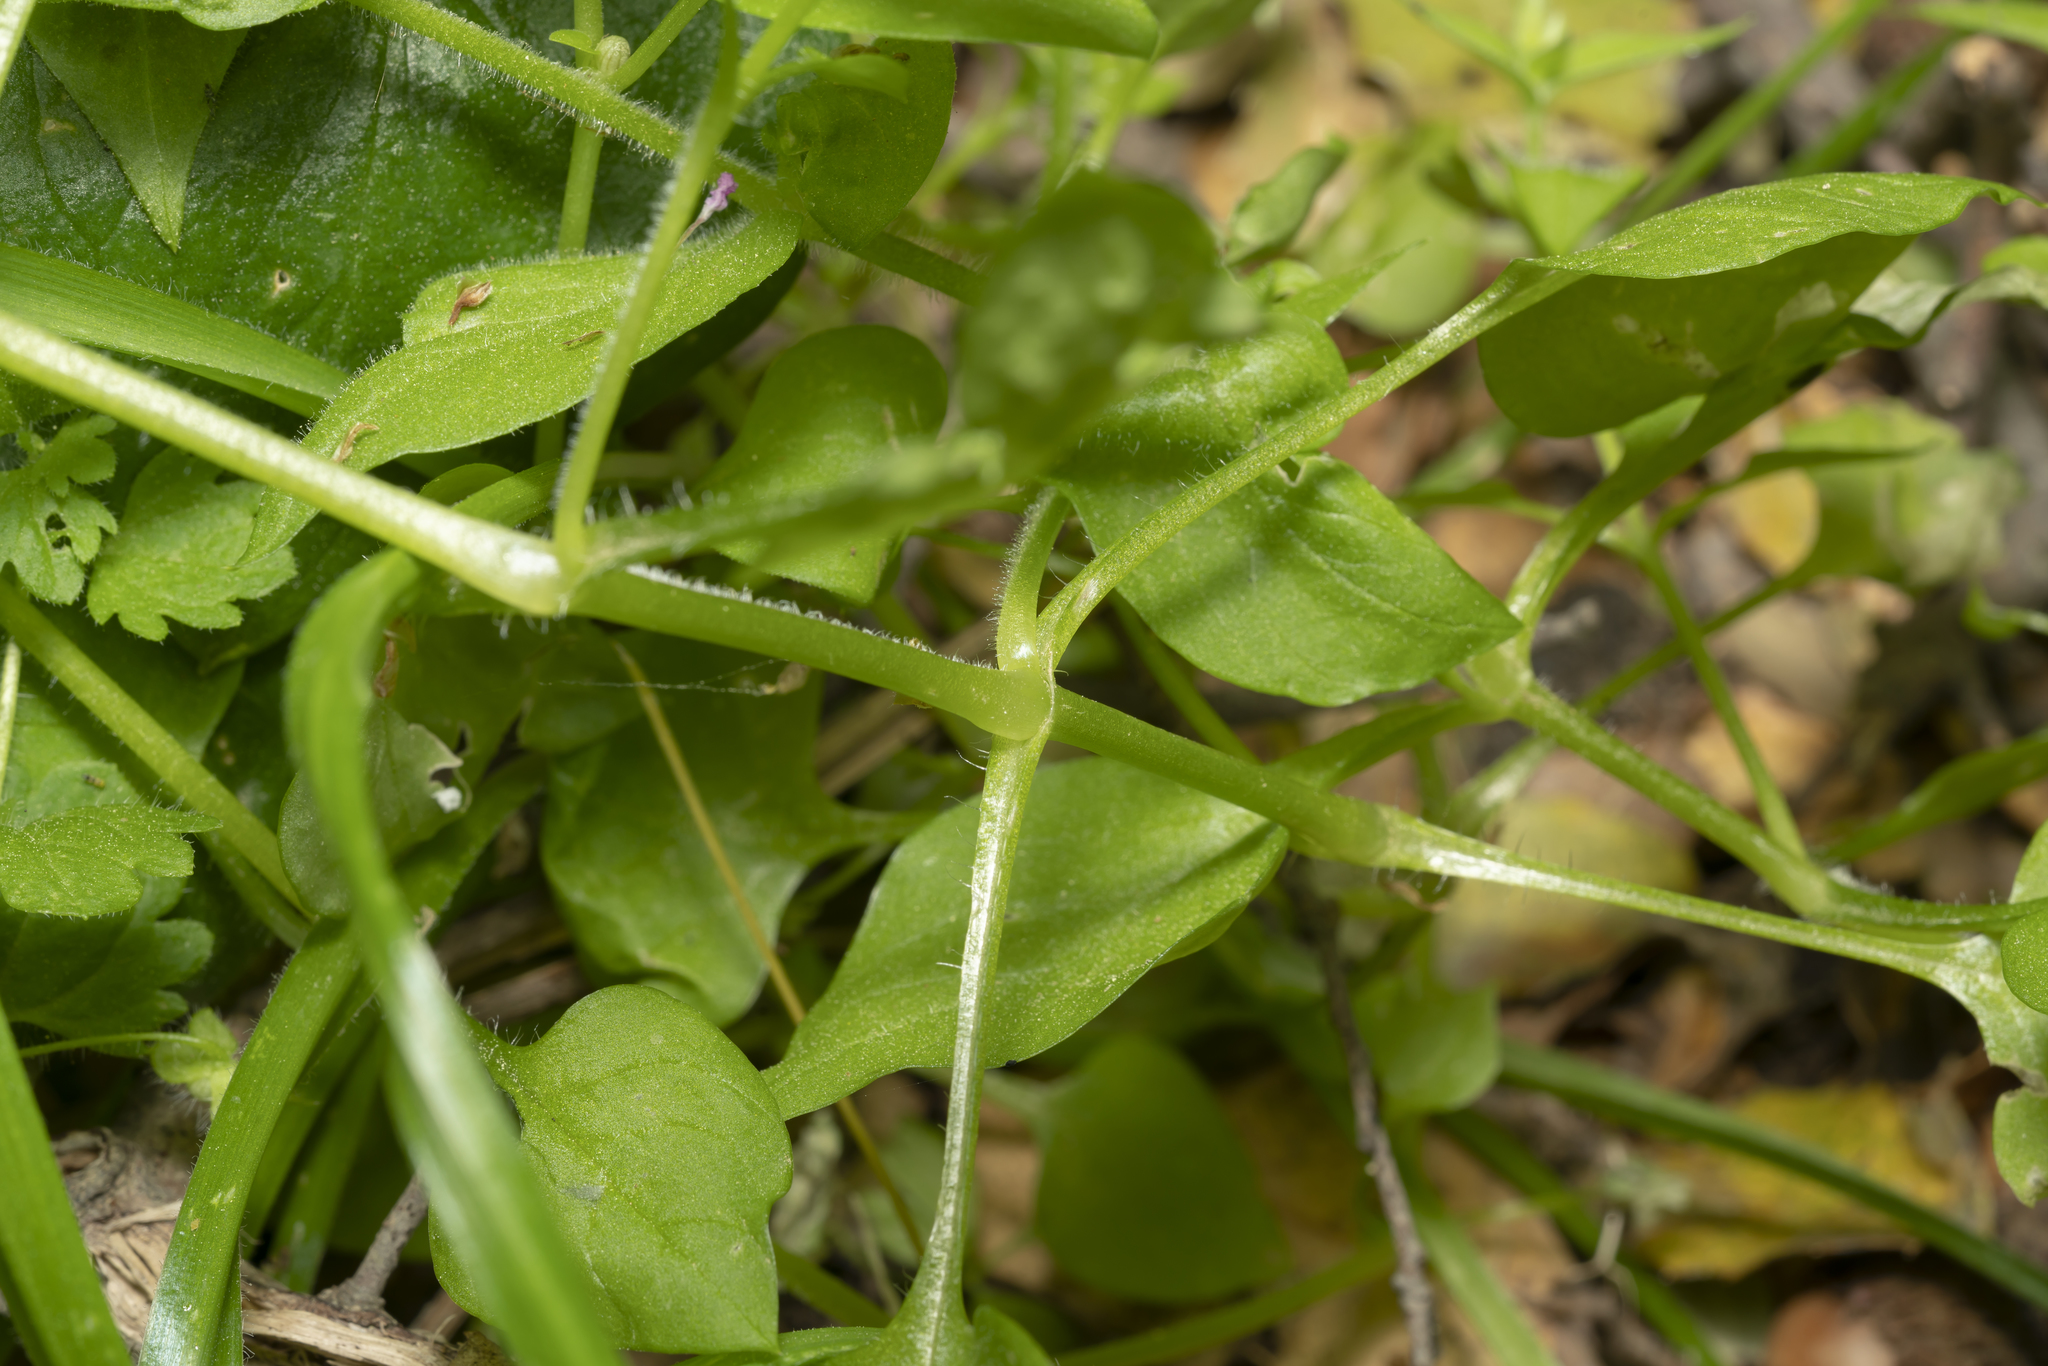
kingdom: Plantae
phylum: Tracheophyta
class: Magnoliopsida
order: Caryophyllales
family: Caryophyllaceae
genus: Stellaria
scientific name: Stellaria cupaniana
